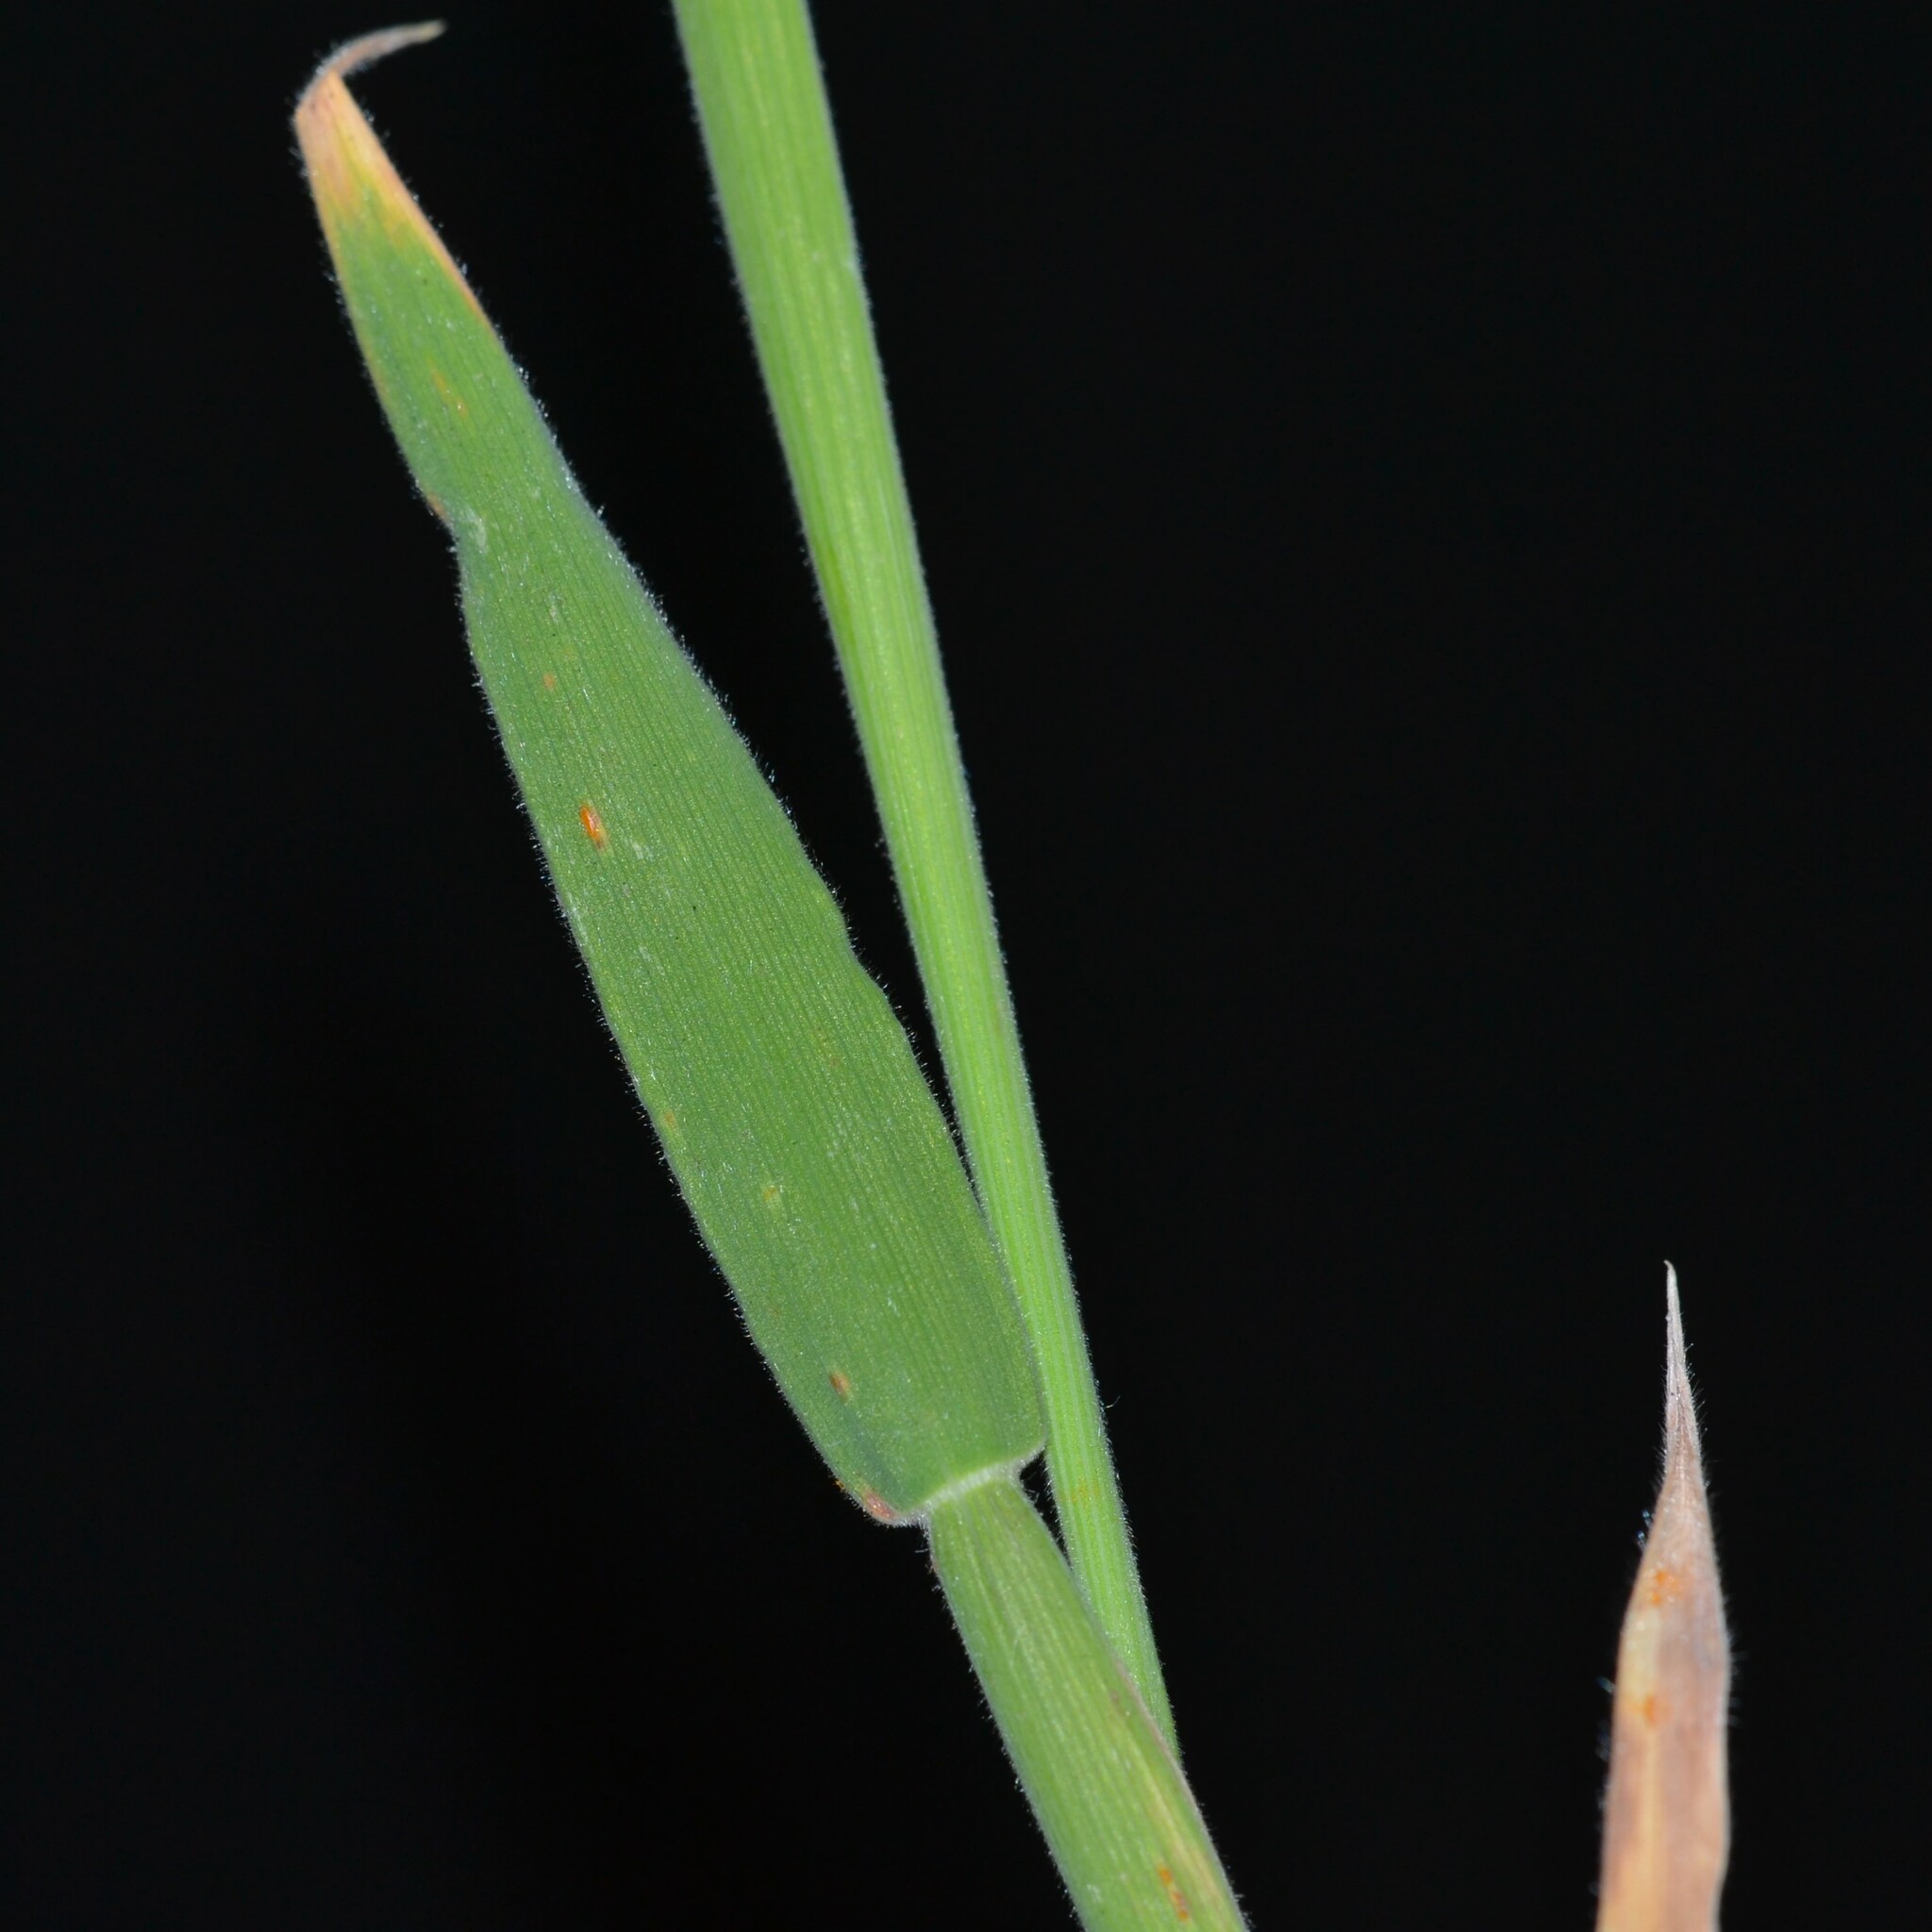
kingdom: Plantae
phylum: Tracheophyta
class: Liliopsida
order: Poales
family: Poaceae
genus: Holcus
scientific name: Holcus lanatus
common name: Yorkshire-fog
